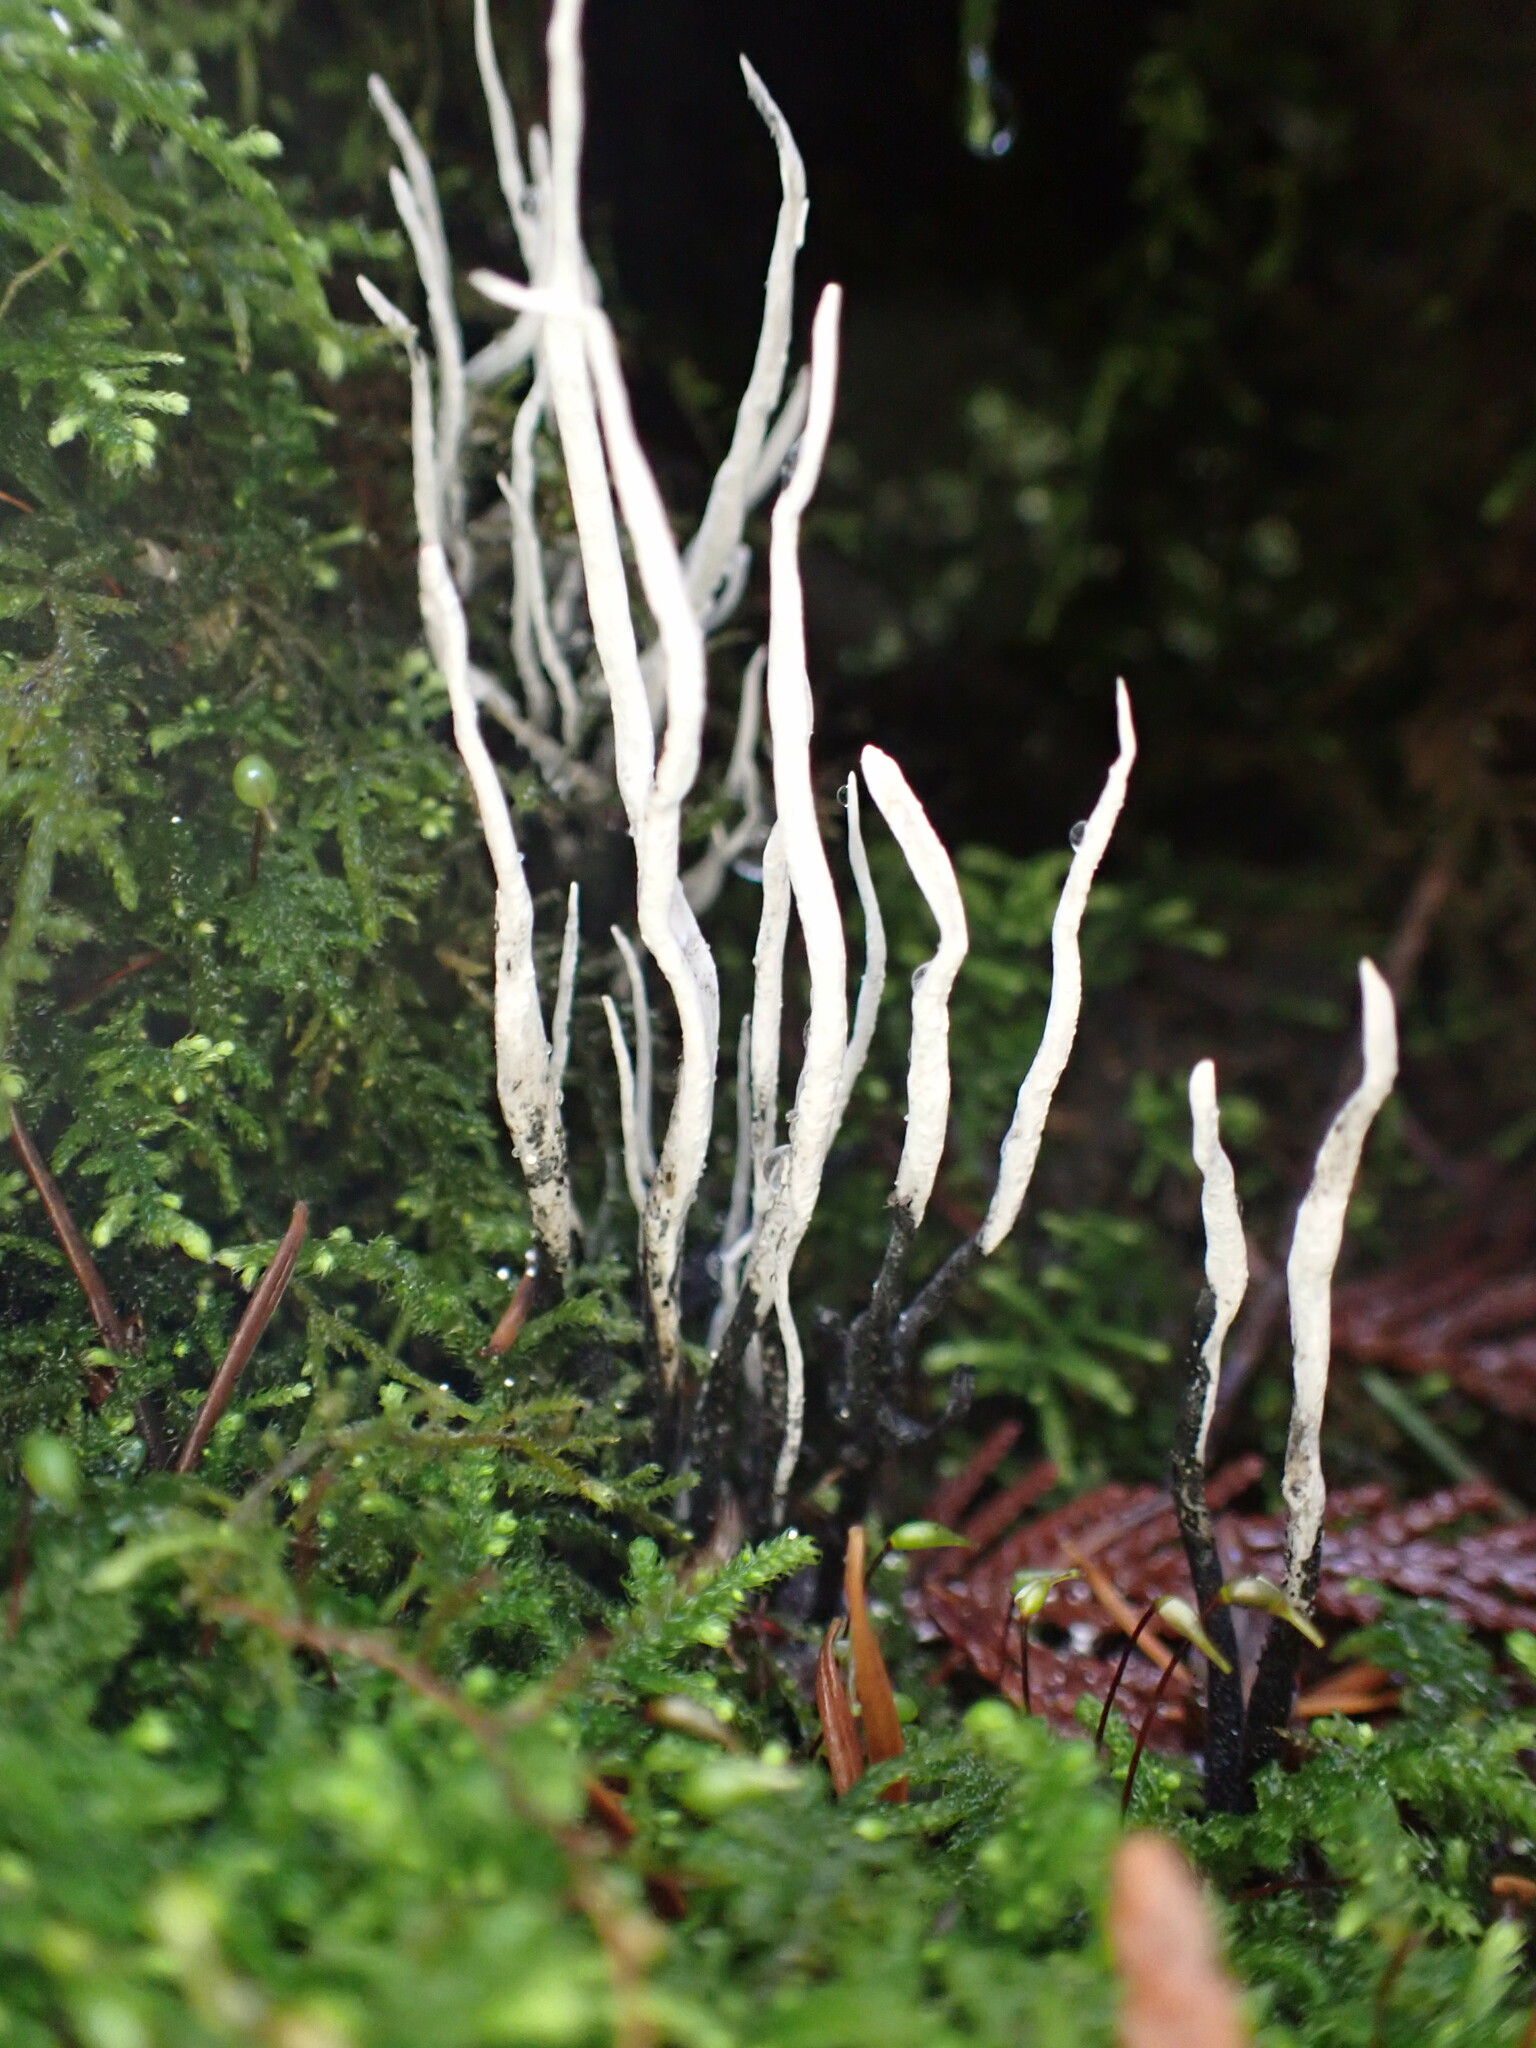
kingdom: Fungi
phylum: Ascomycota
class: Sordariomycetes
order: Xylariales
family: Xylariaceae
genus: Xylaria
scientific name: Xylaria hypoxylon
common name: Candle-snuff fungus
